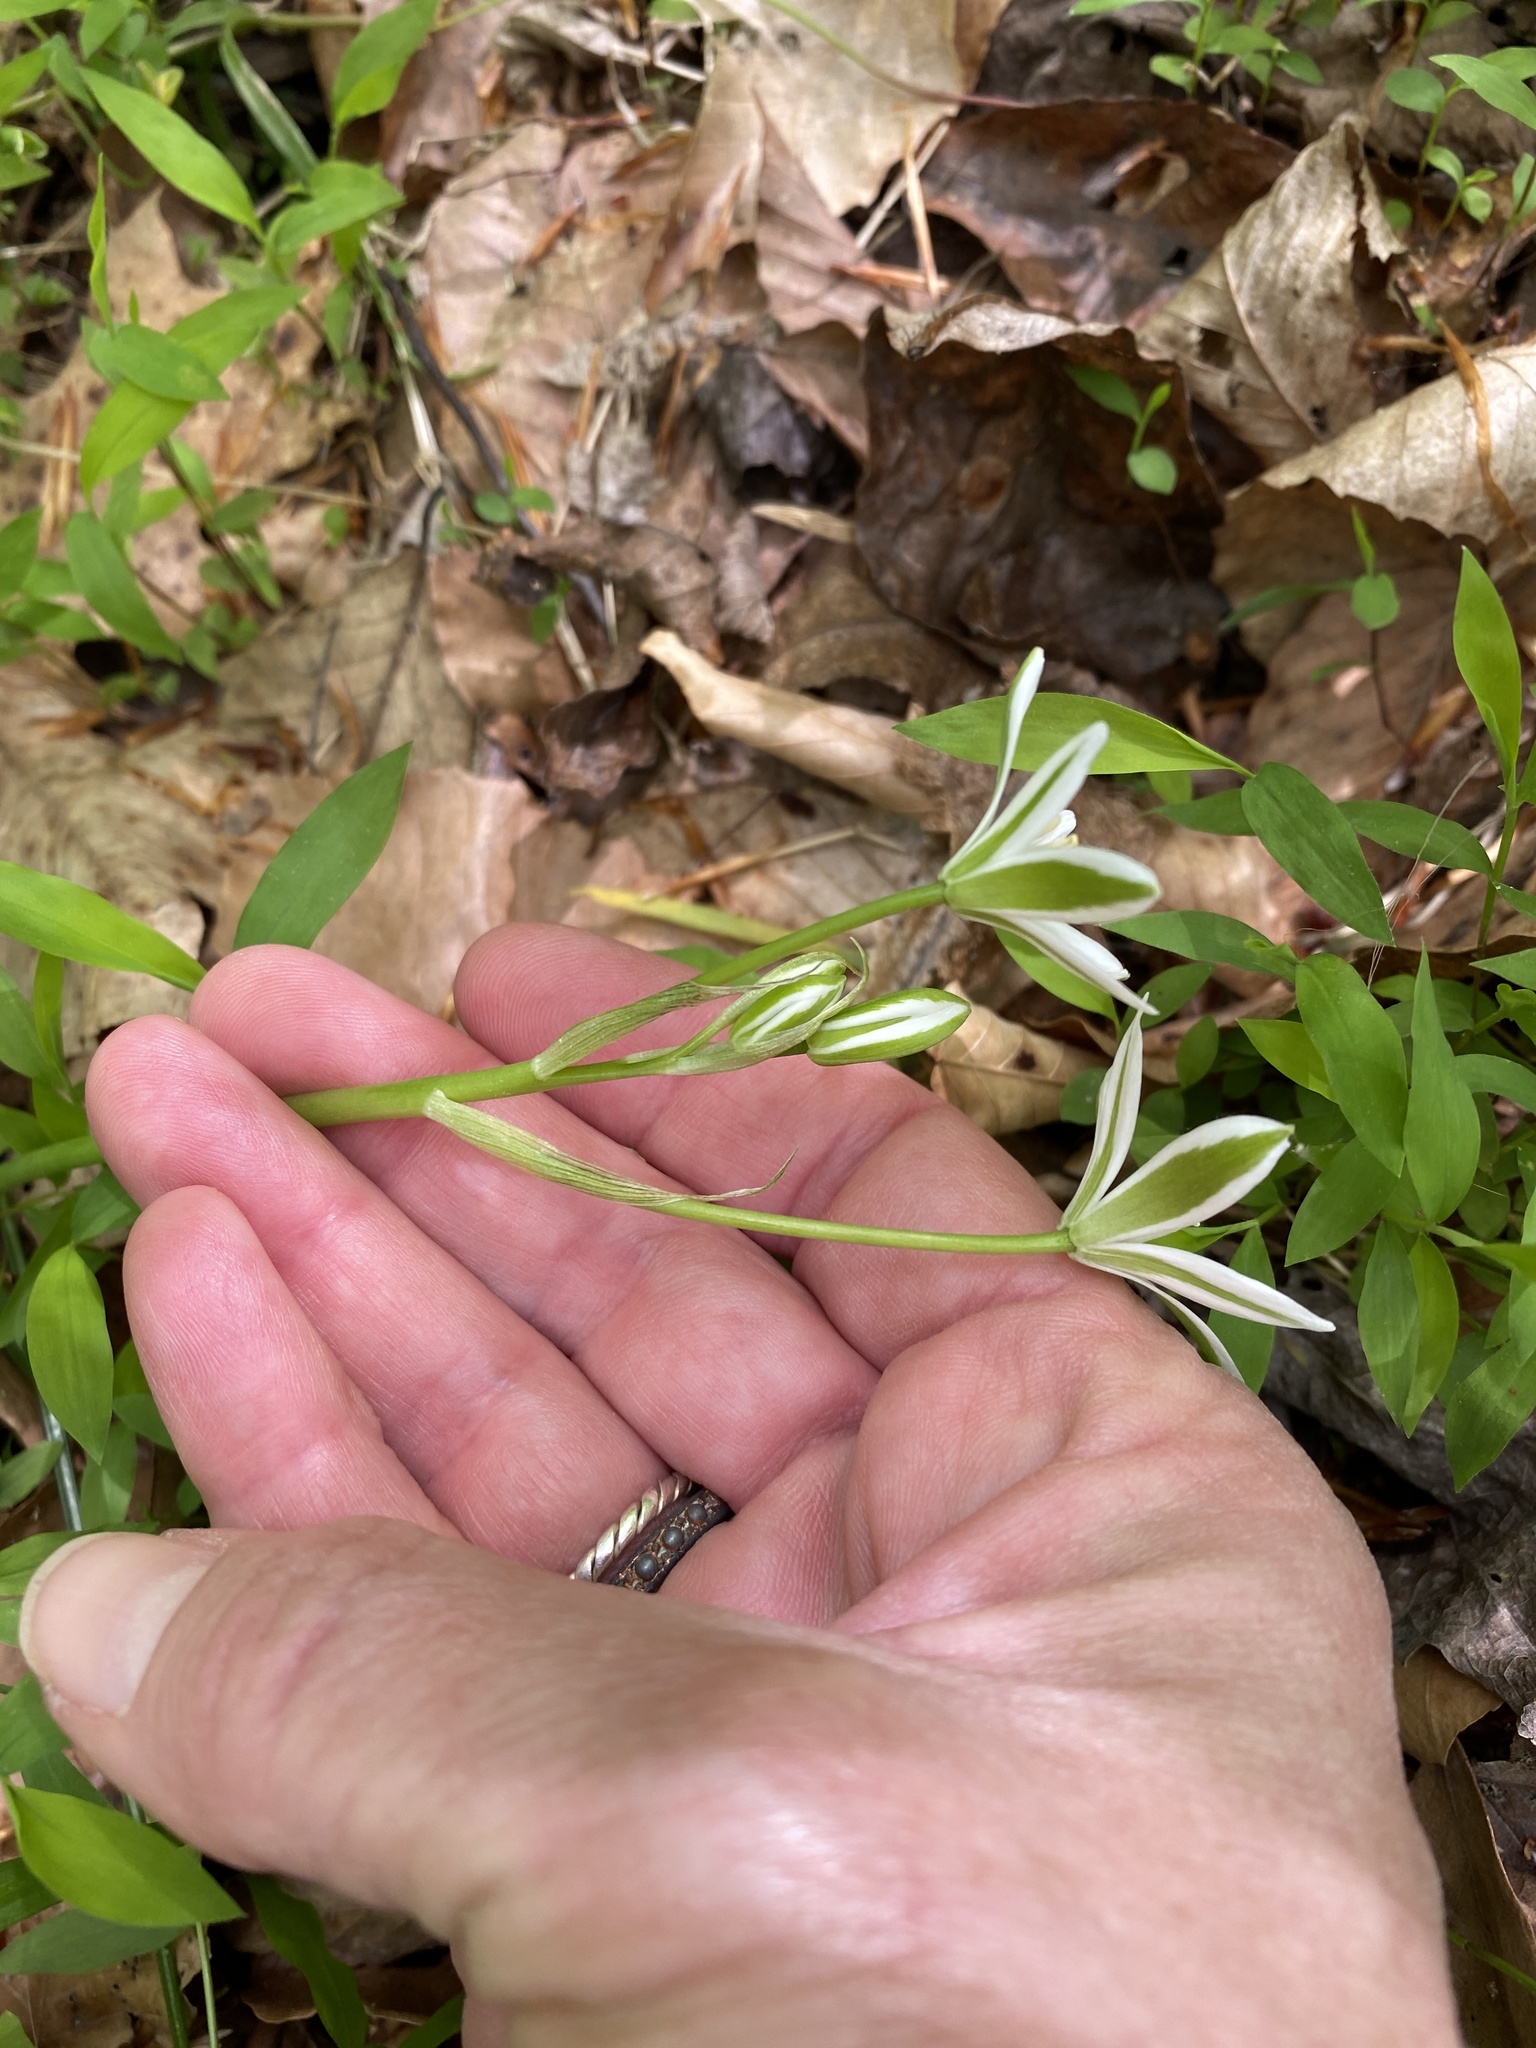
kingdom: Plantae
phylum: Tracheophyta
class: Liliopsida
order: Asparagales
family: Asparagaceae
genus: Ornithogalum
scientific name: Ornithogalum umbellatum
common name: Garden star-of-bethlehem
